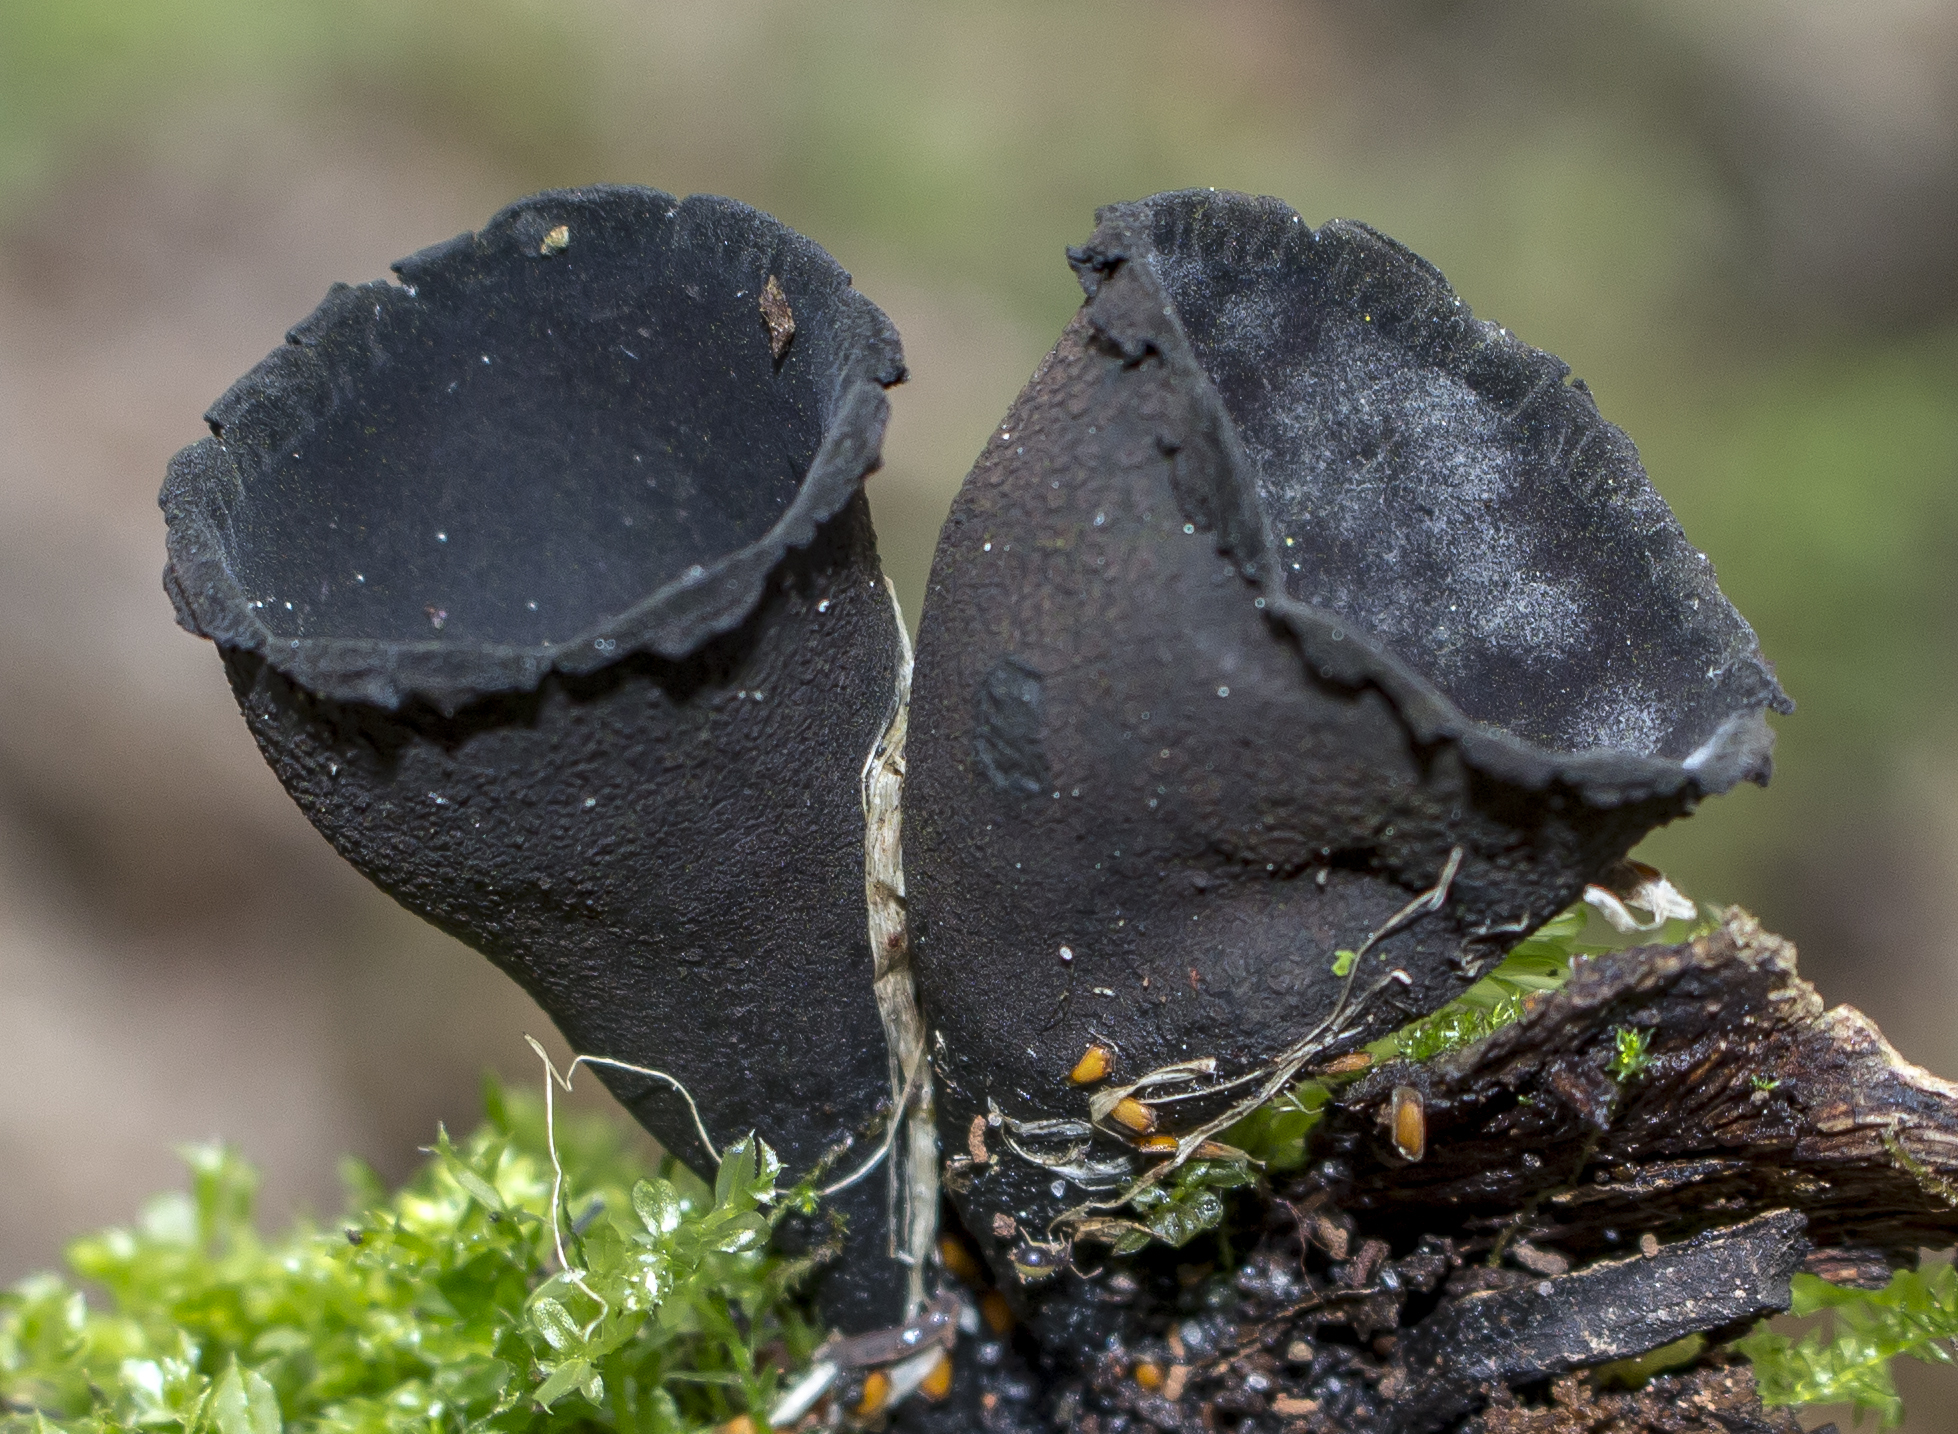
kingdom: Fungi
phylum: Ascomycota
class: Pezizomycetes
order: Pezizales
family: Sarcosomataceae
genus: Urnula
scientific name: Urnula craterium
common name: Devil's urn
